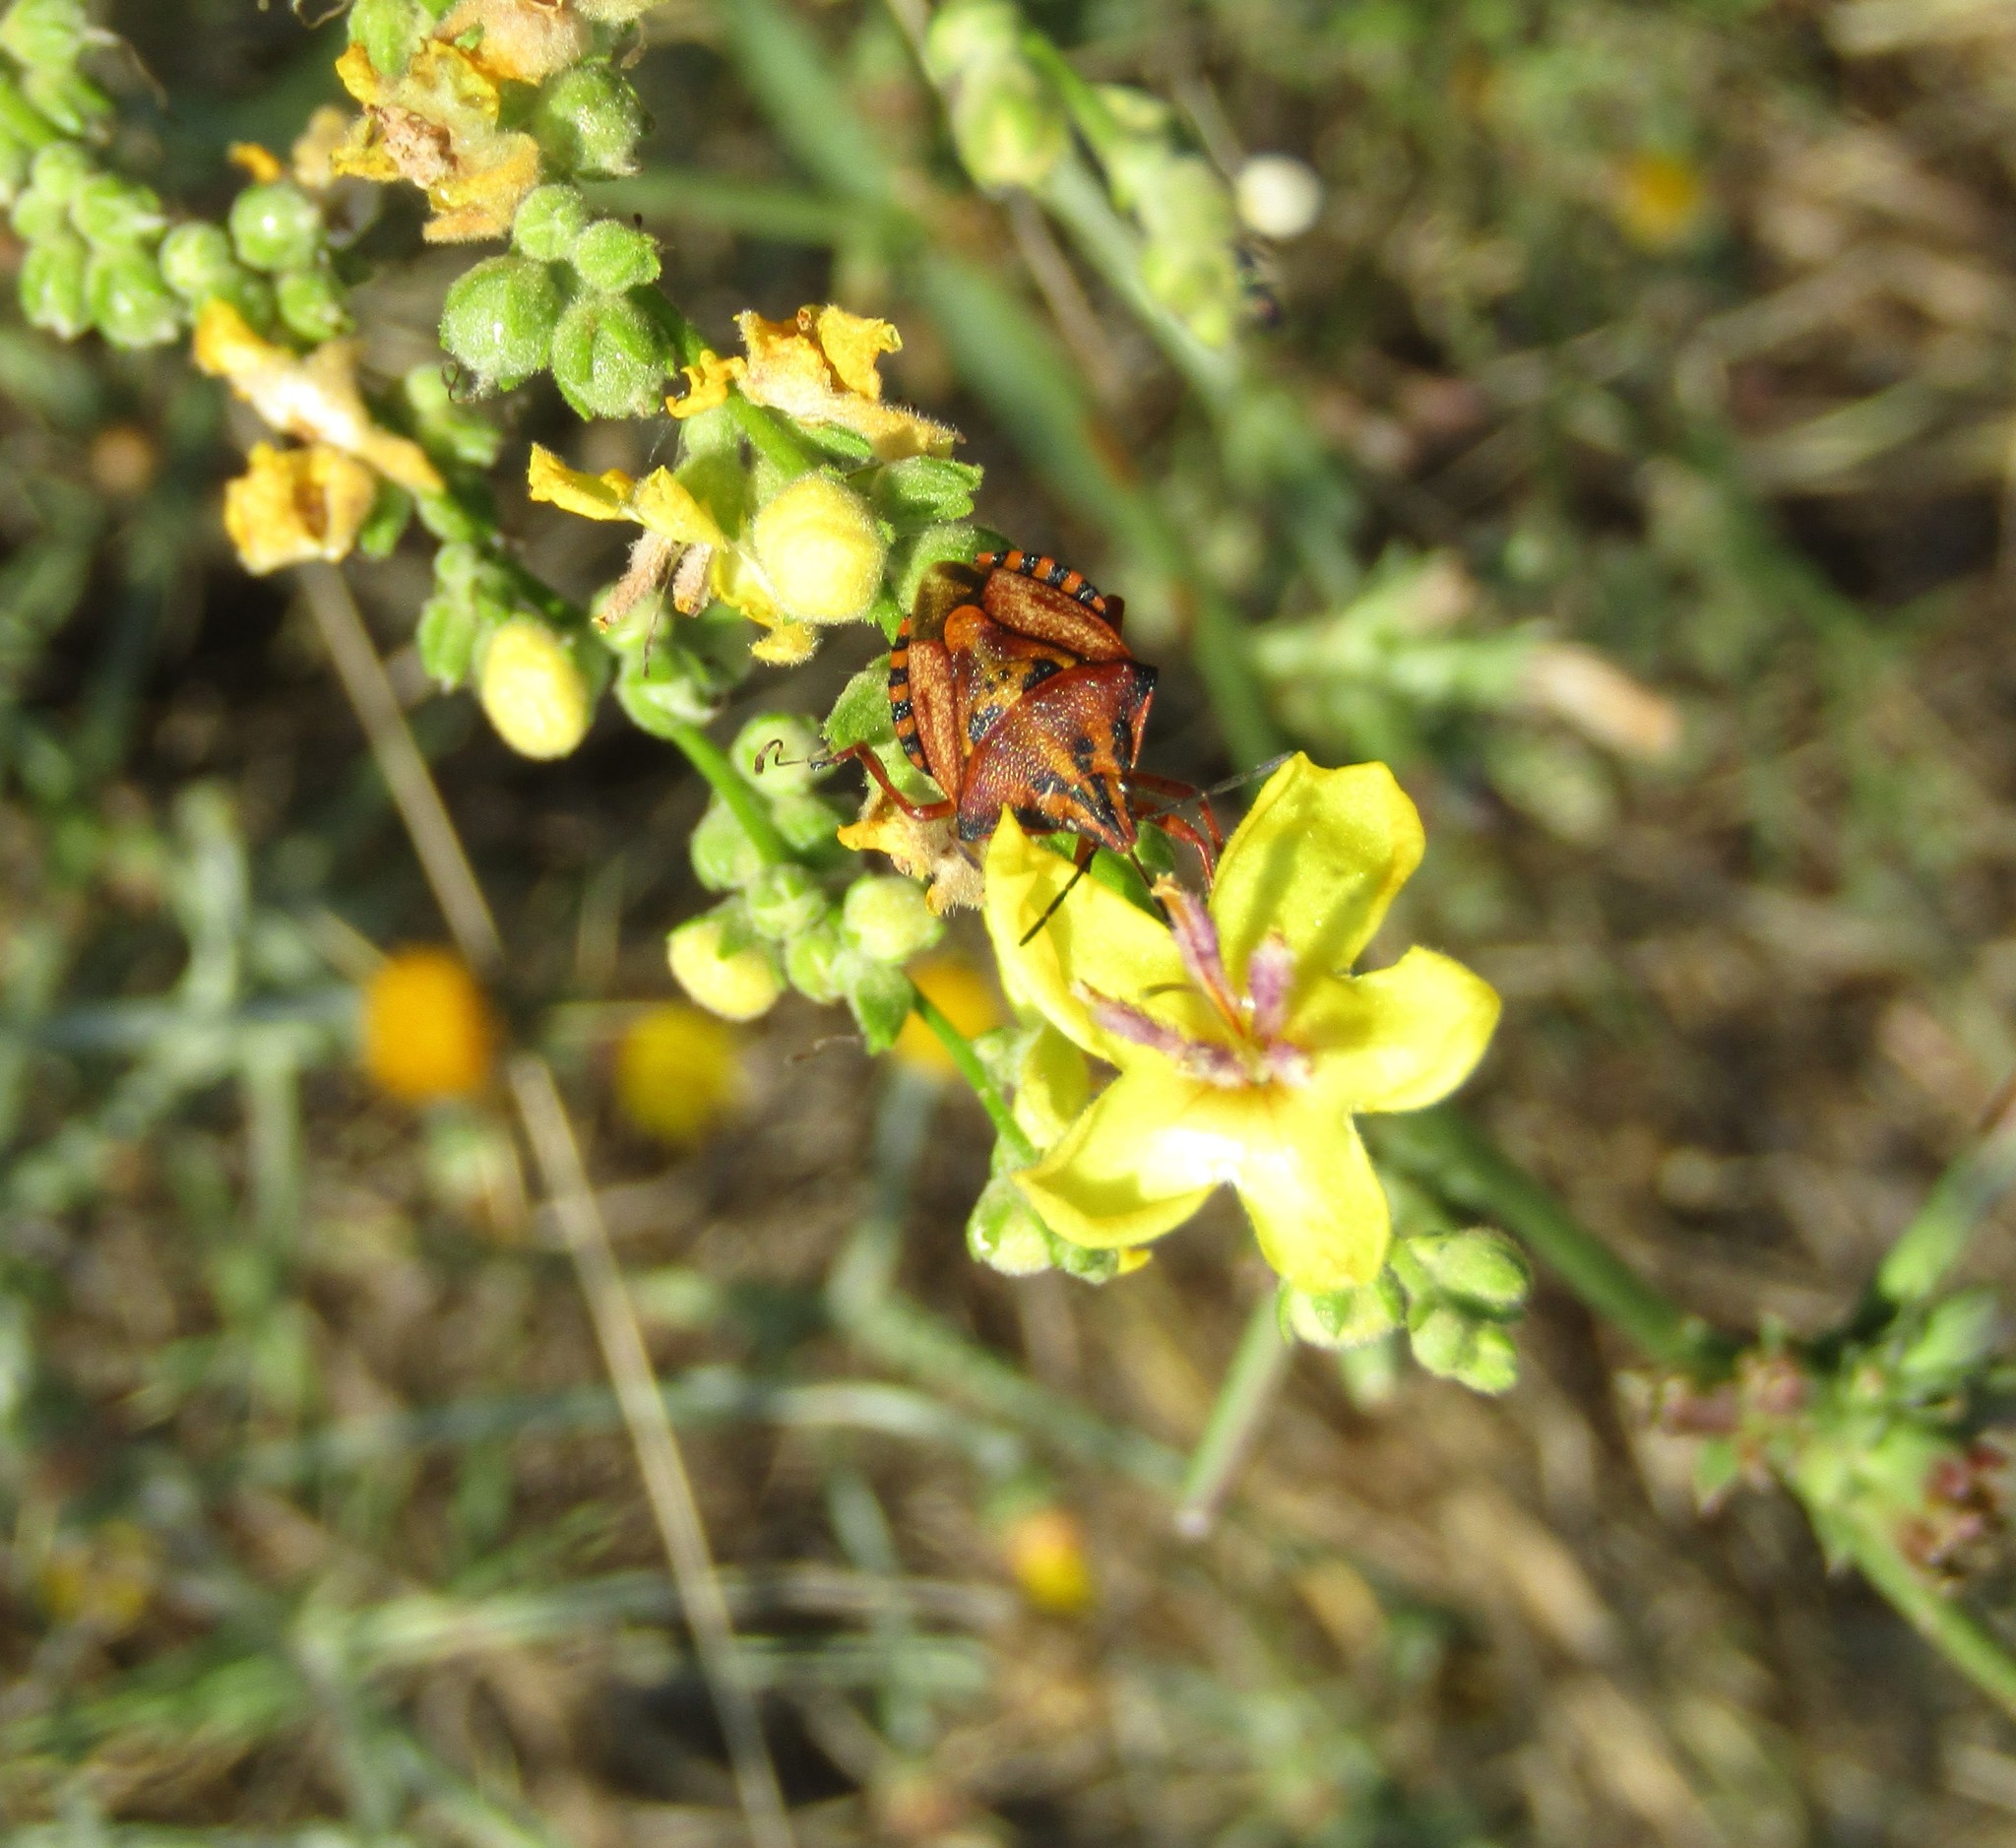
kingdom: Animalia
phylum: Arthropoda
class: Insecta
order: Hemiptera
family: Pentatomidae
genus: Carpocoris
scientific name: Carpocoris mediterraneus
